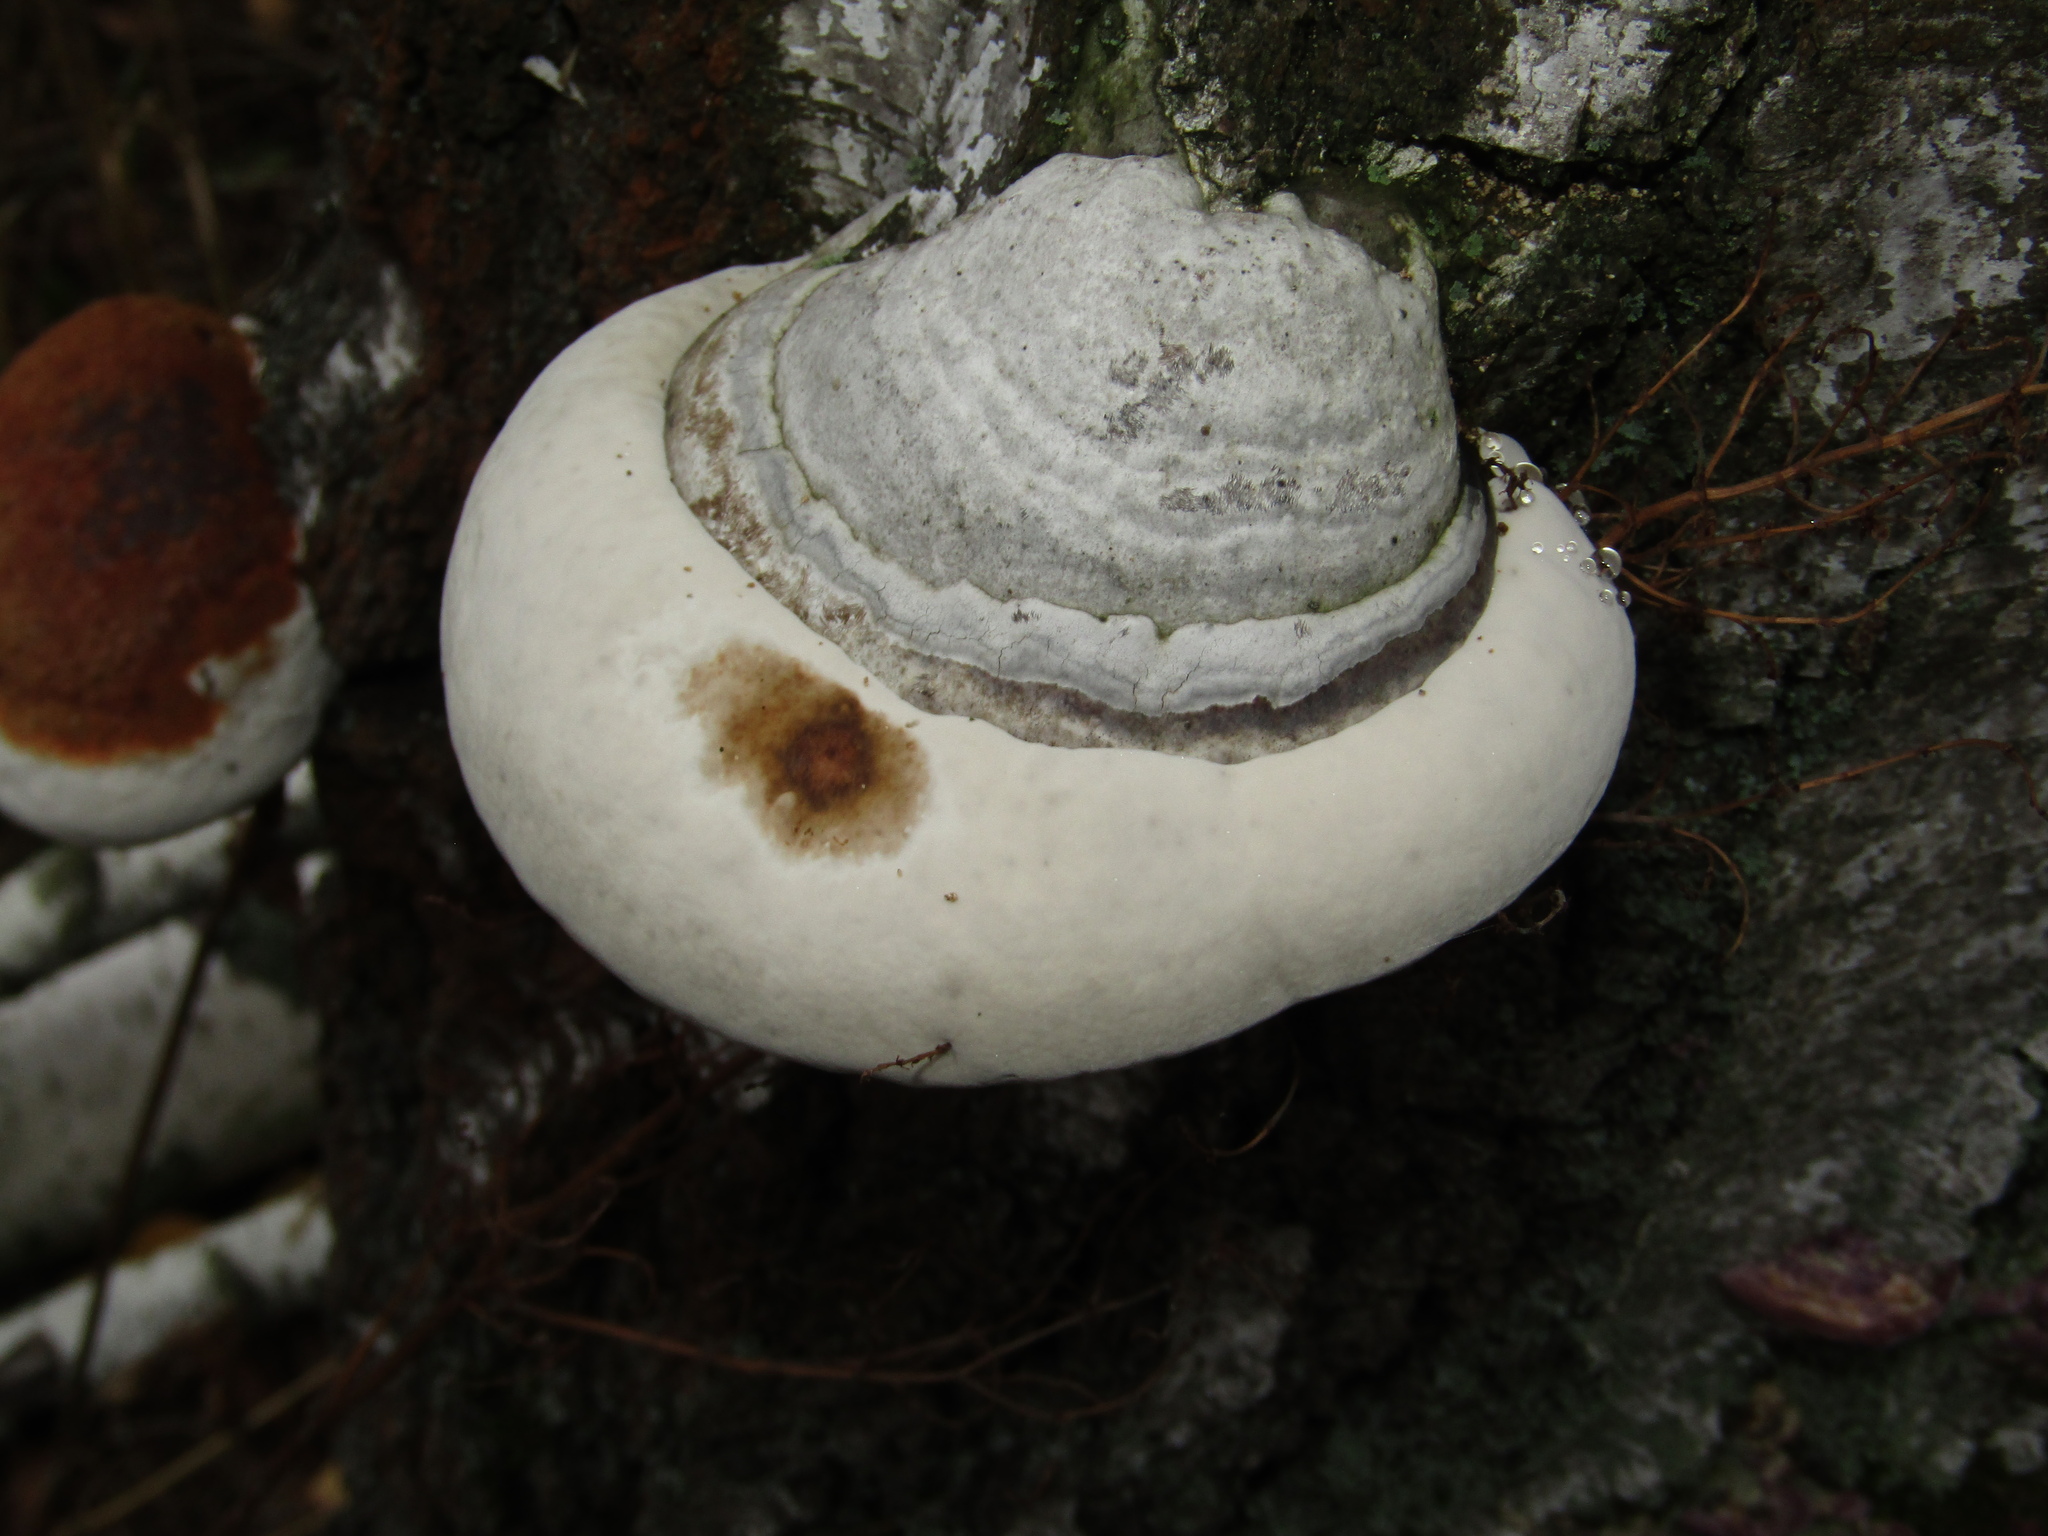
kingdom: Fungi
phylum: Basidiomycota
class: Agaricomycetes
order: Polyporales
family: Polyporaceae
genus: Fomes
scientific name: Fomes fomentarius
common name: Hoof fungus
